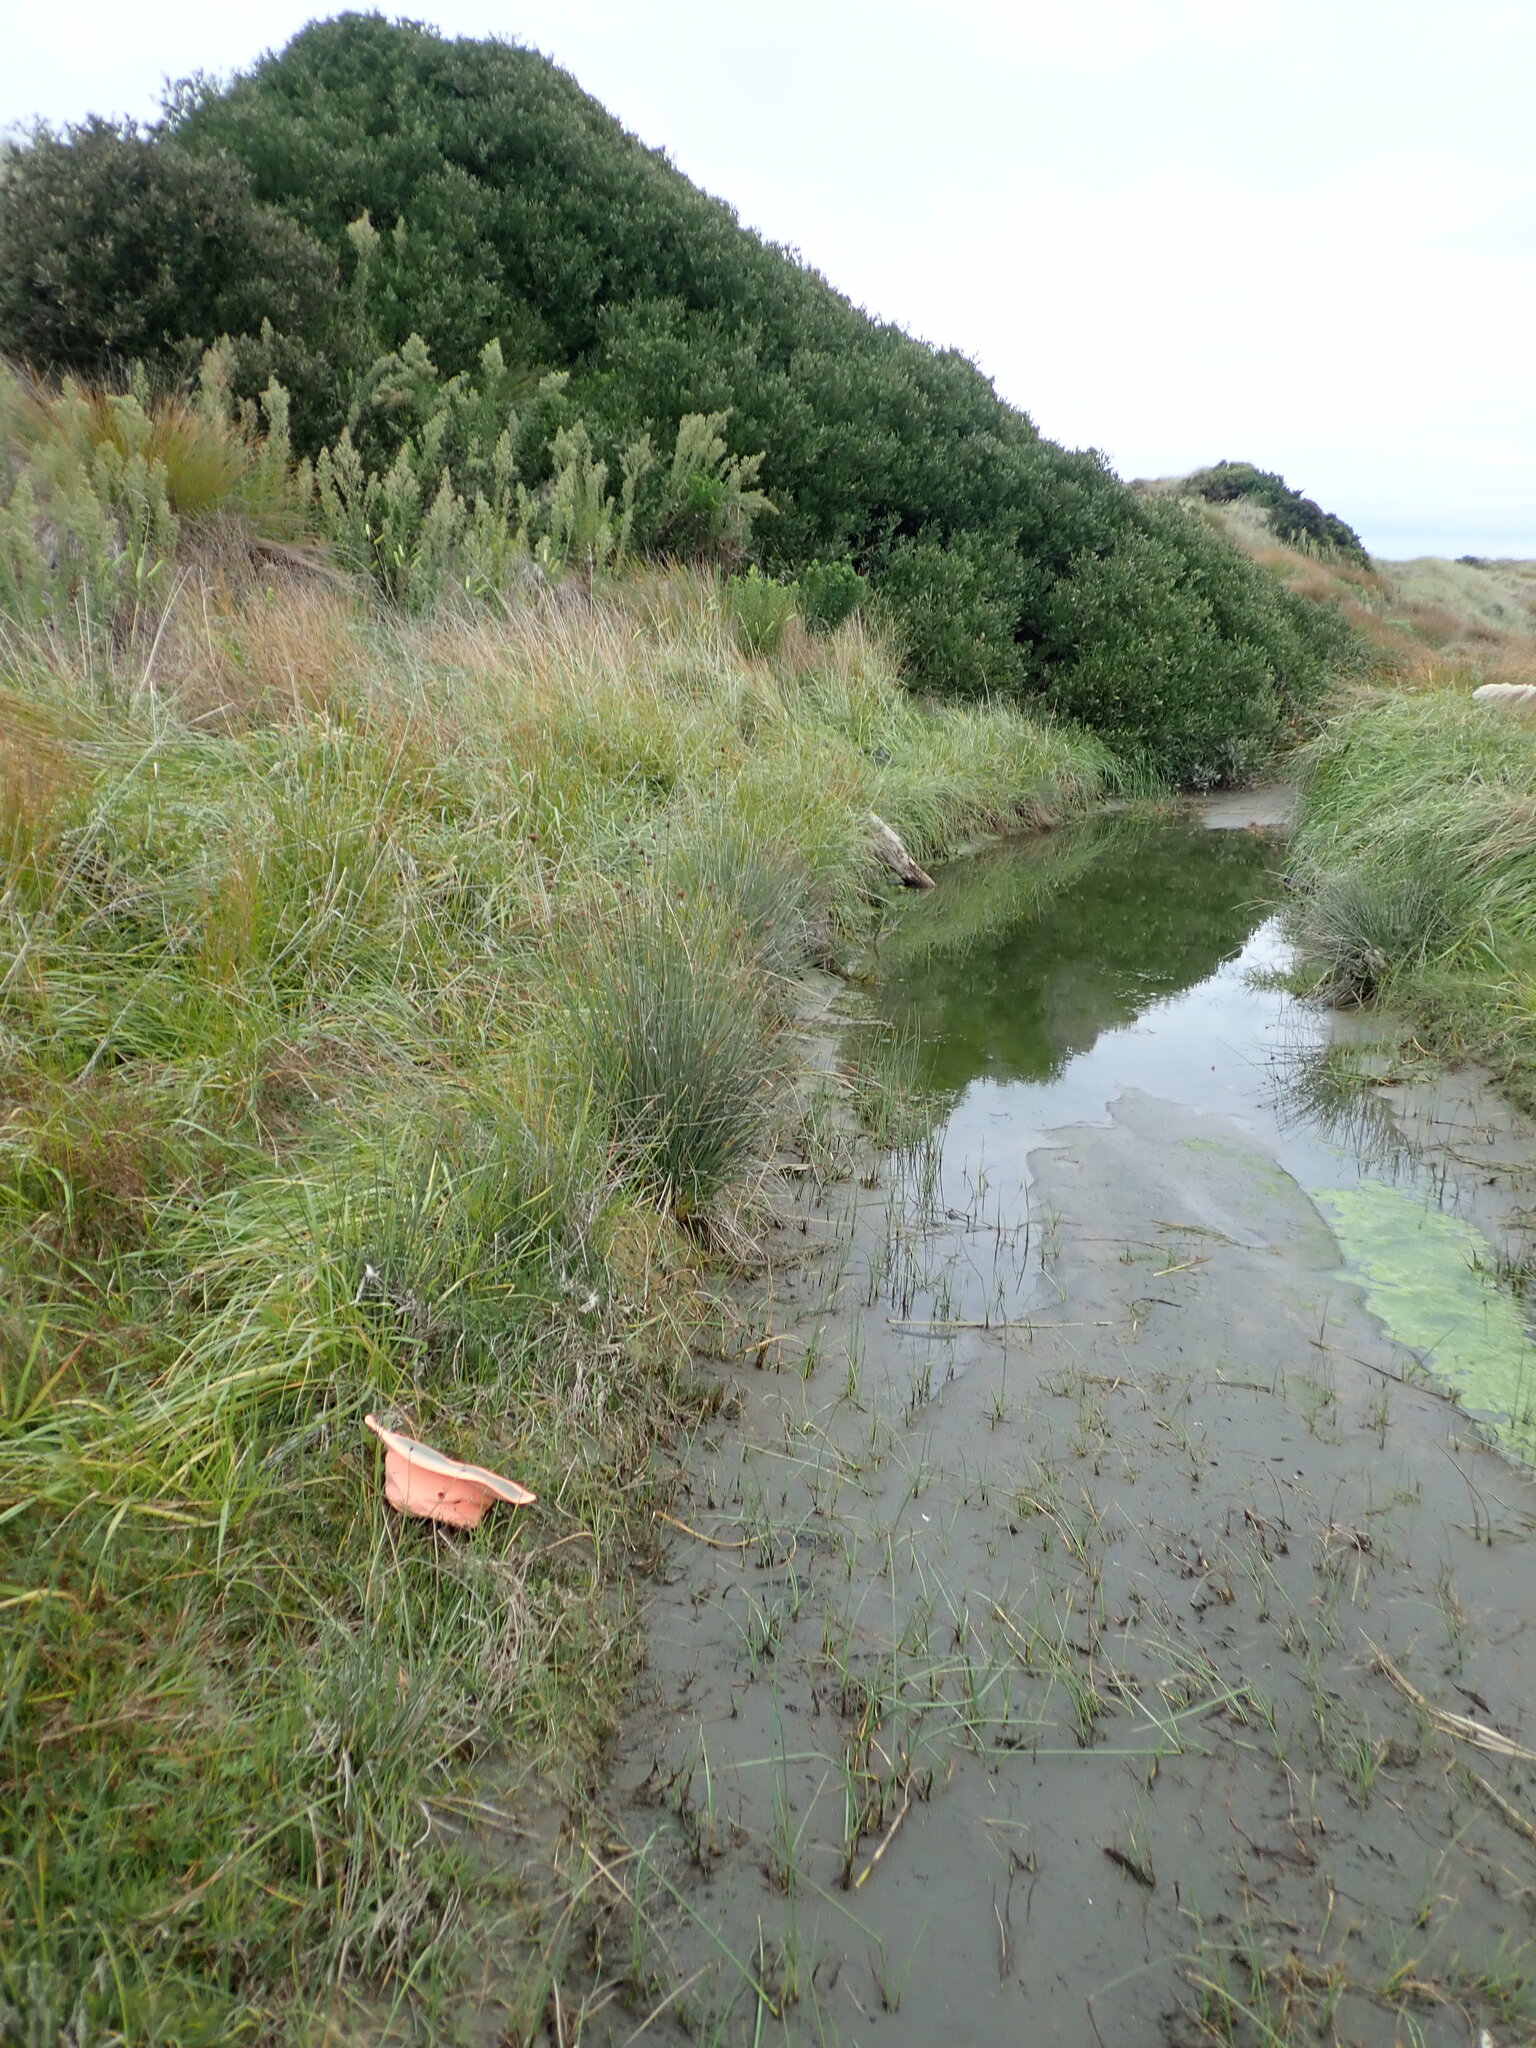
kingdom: Plantae
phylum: Tracheophyta
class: Magnoliopsida
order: Apiales
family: Apiaceae
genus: Lilaeopsis
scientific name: Lilaeopsis novae-zelandiae
